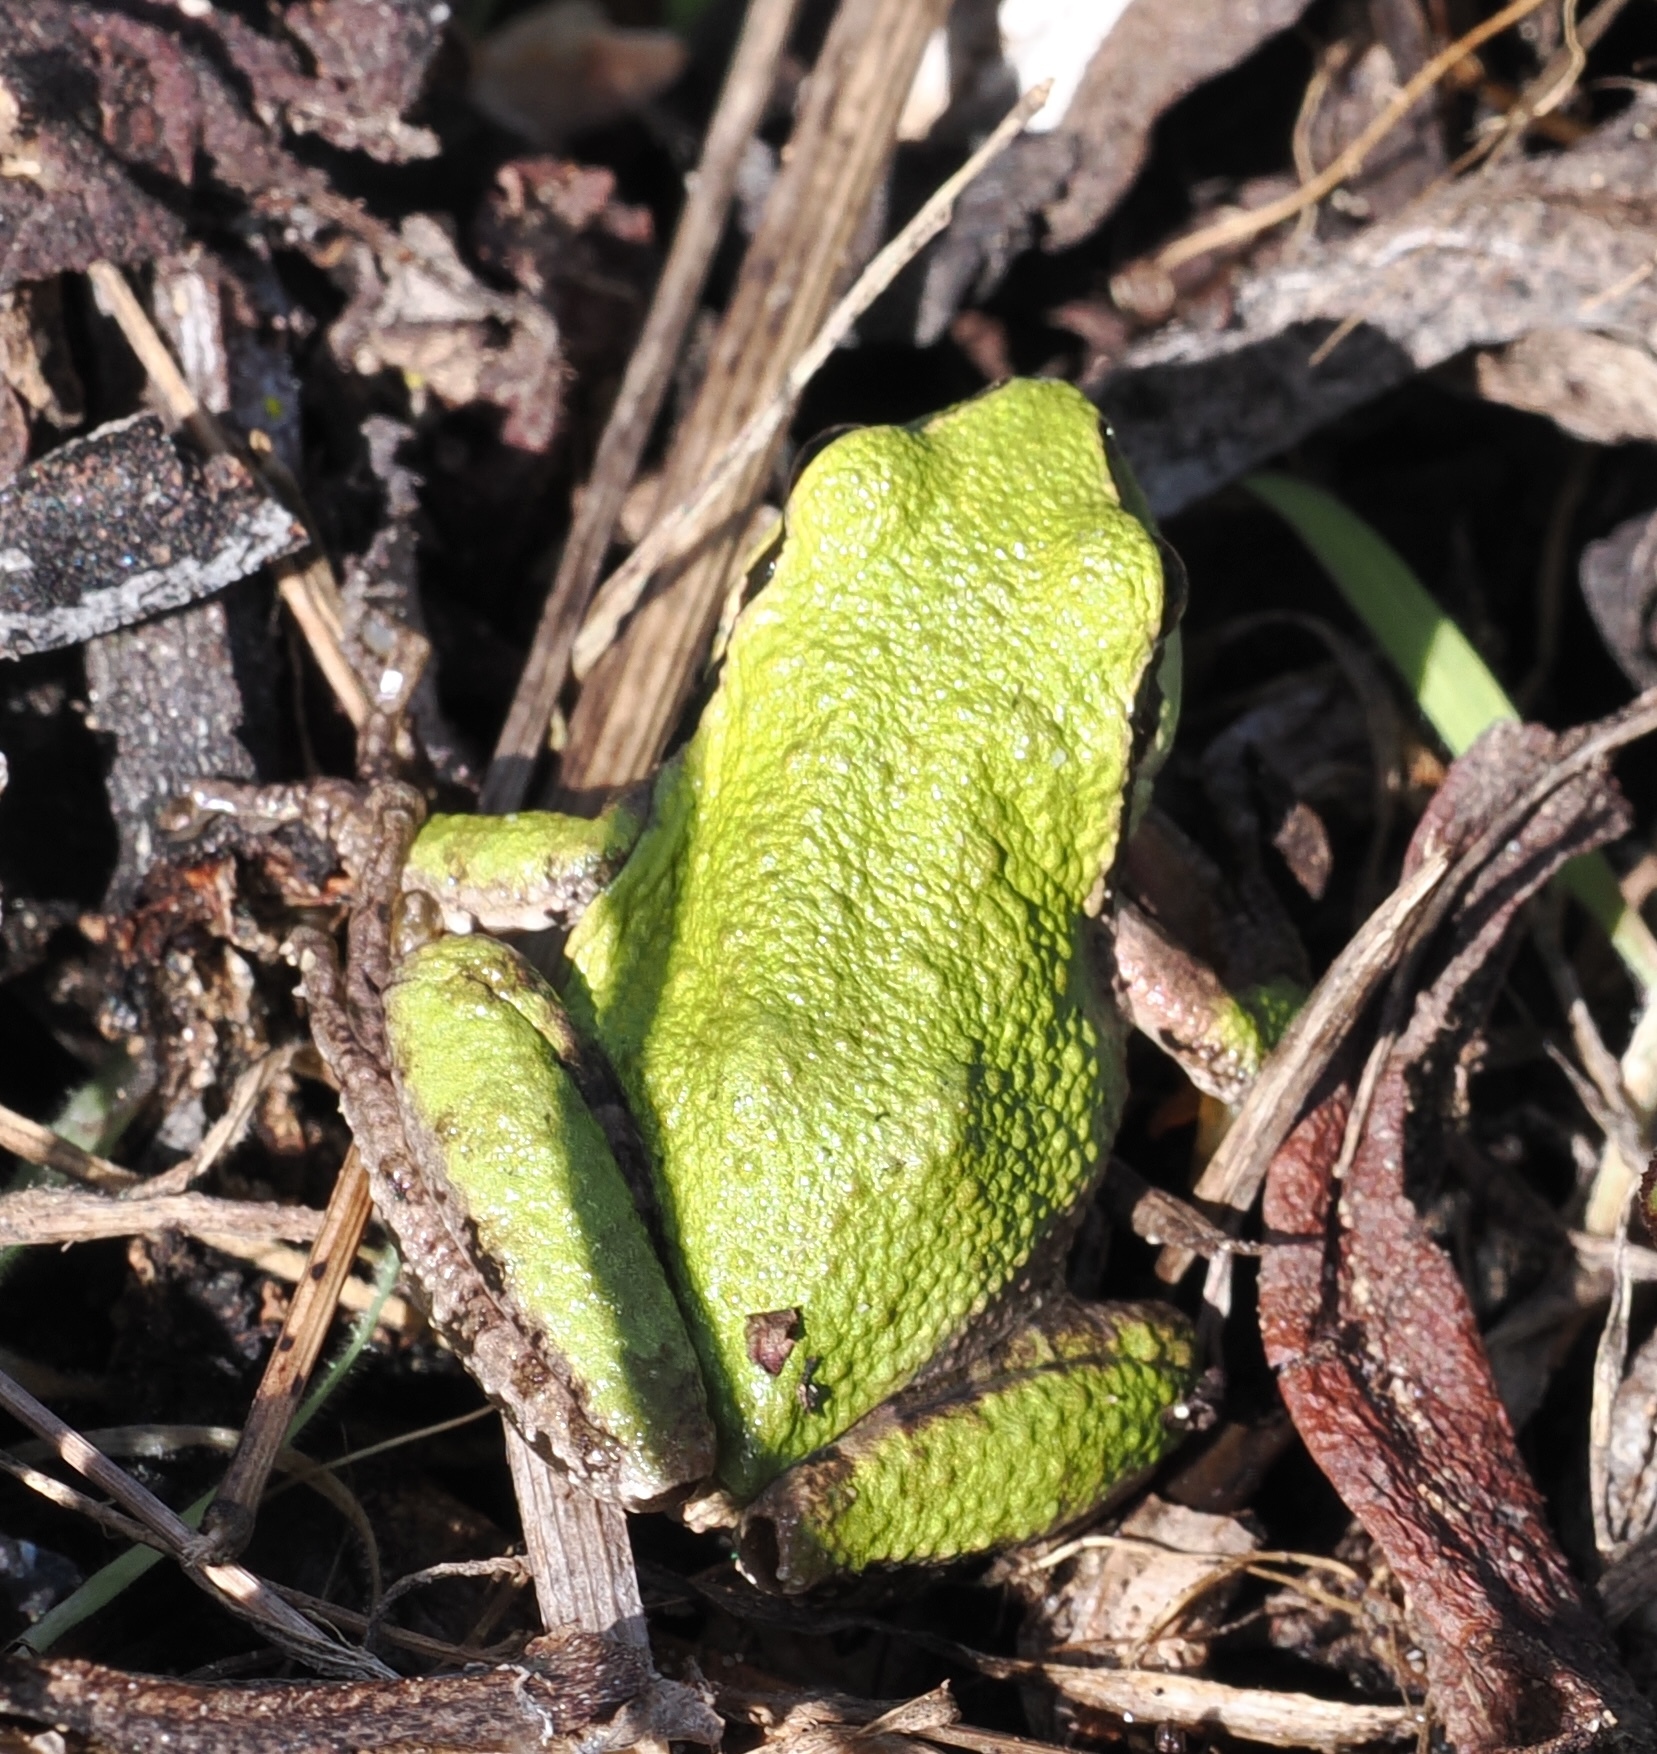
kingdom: Animalia
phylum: Chordata
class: Amphibia
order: Anura
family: Hylidae
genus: Pseudacris
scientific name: Pseudacris regilla
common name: Pacific chorus frog
